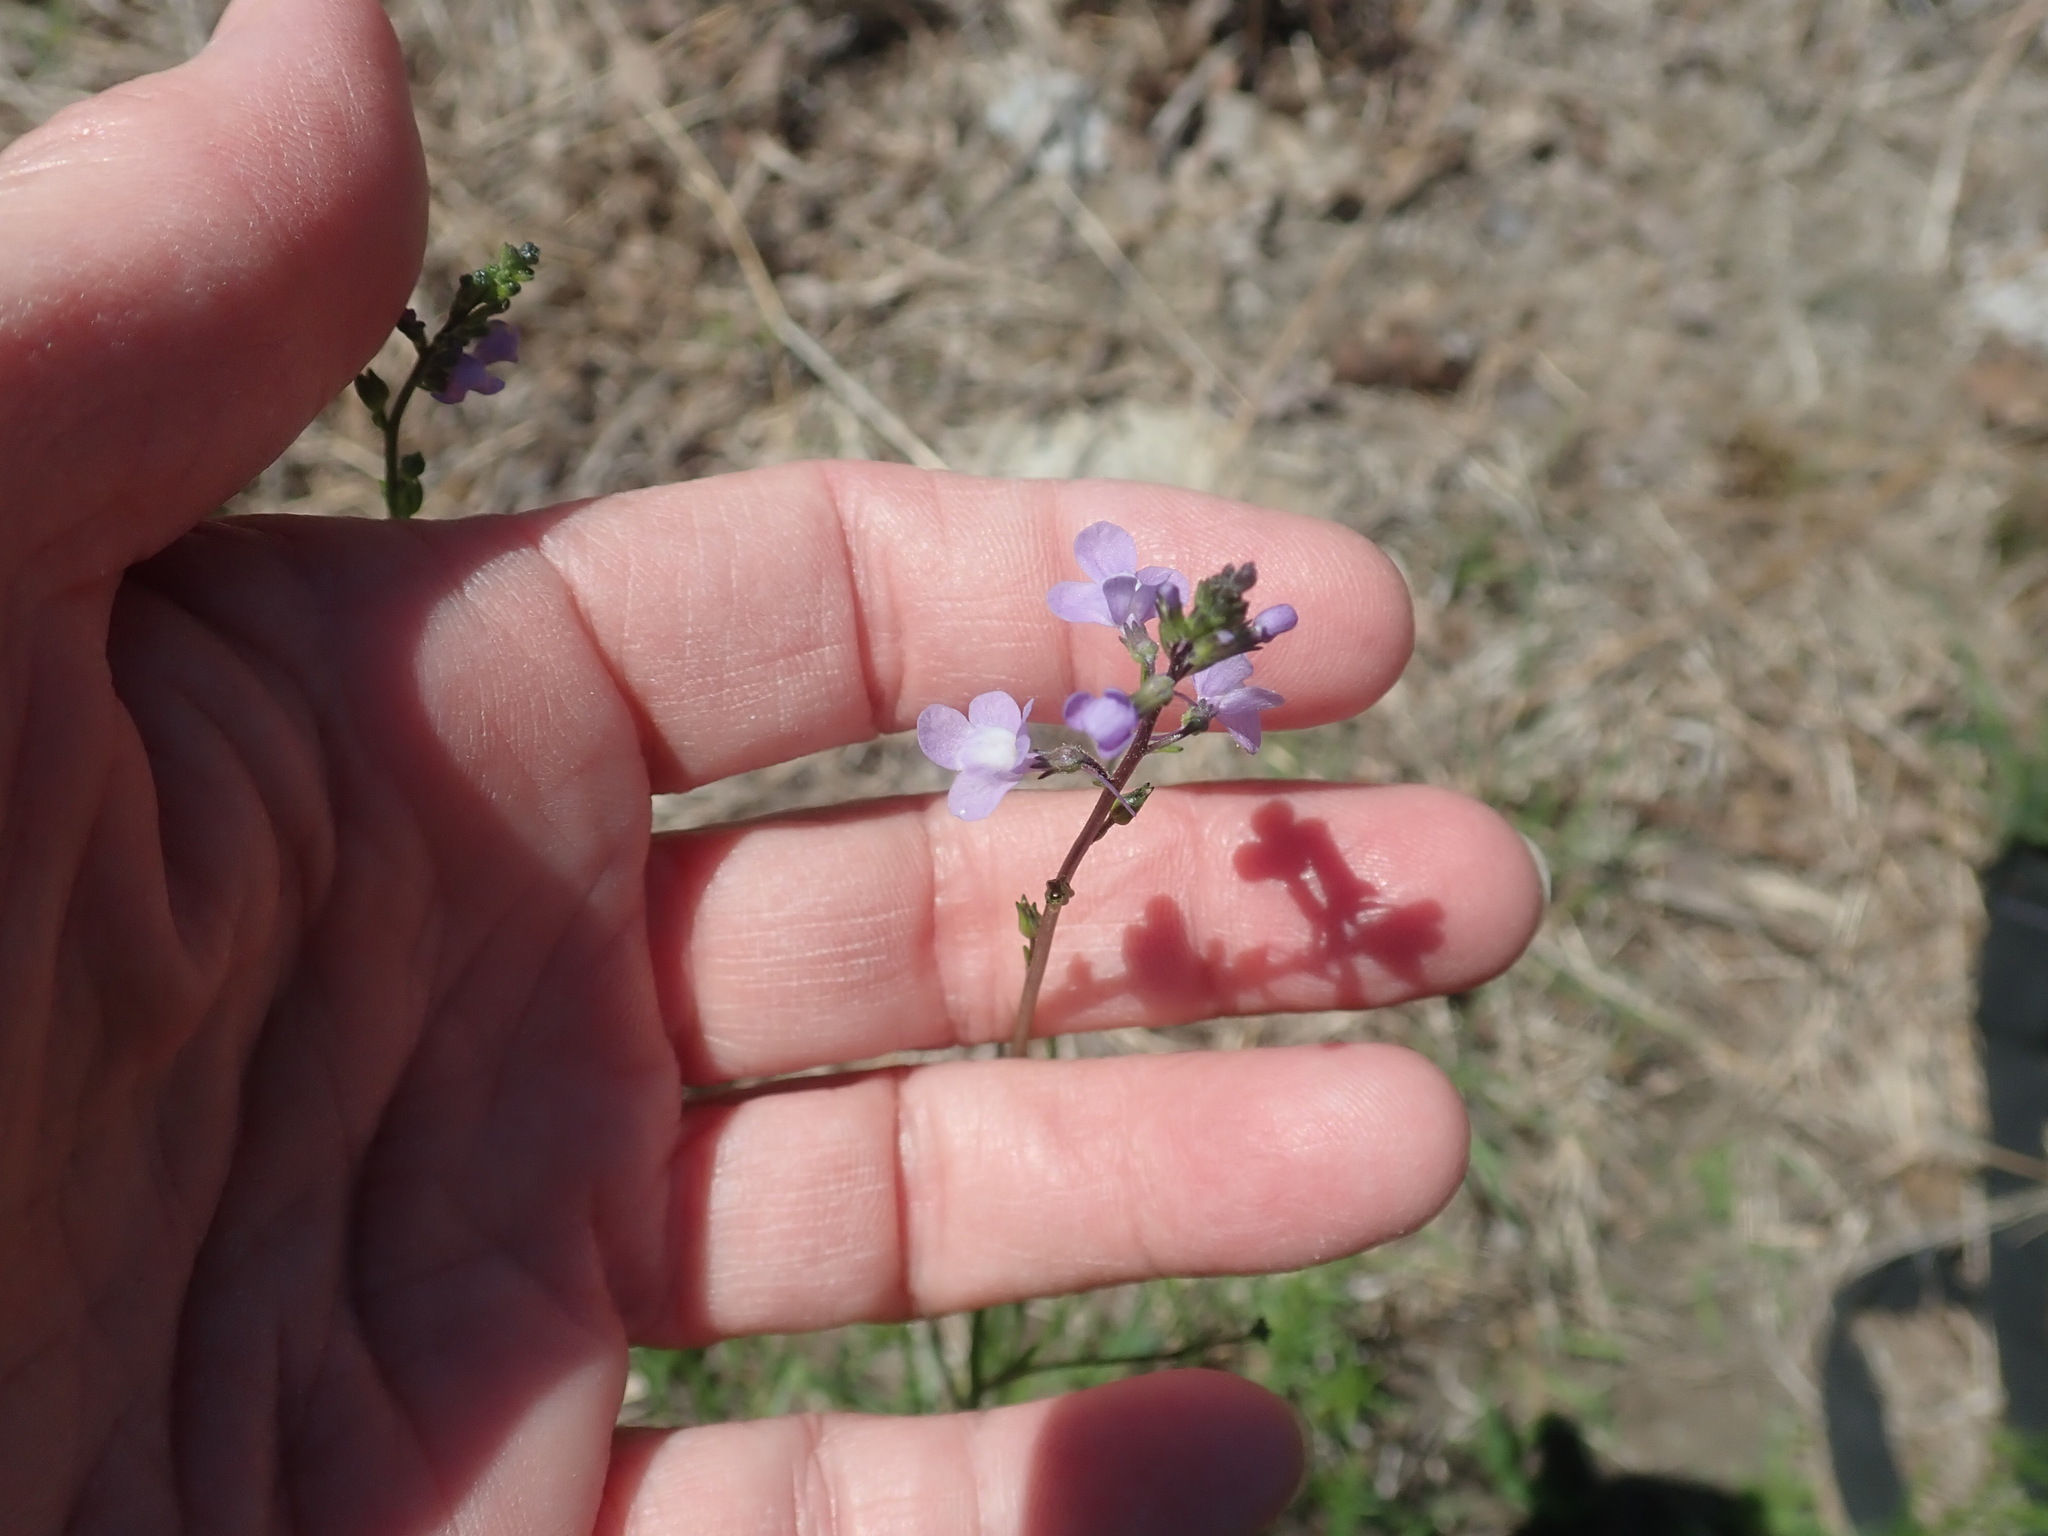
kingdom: Plantae
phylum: Tracheophyta
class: Magnoliopsida
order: Lamiales
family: Plantaginaceae
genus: Nuttallanthus
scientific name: Nuttallanthus canadensis
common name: Blue toadflax
